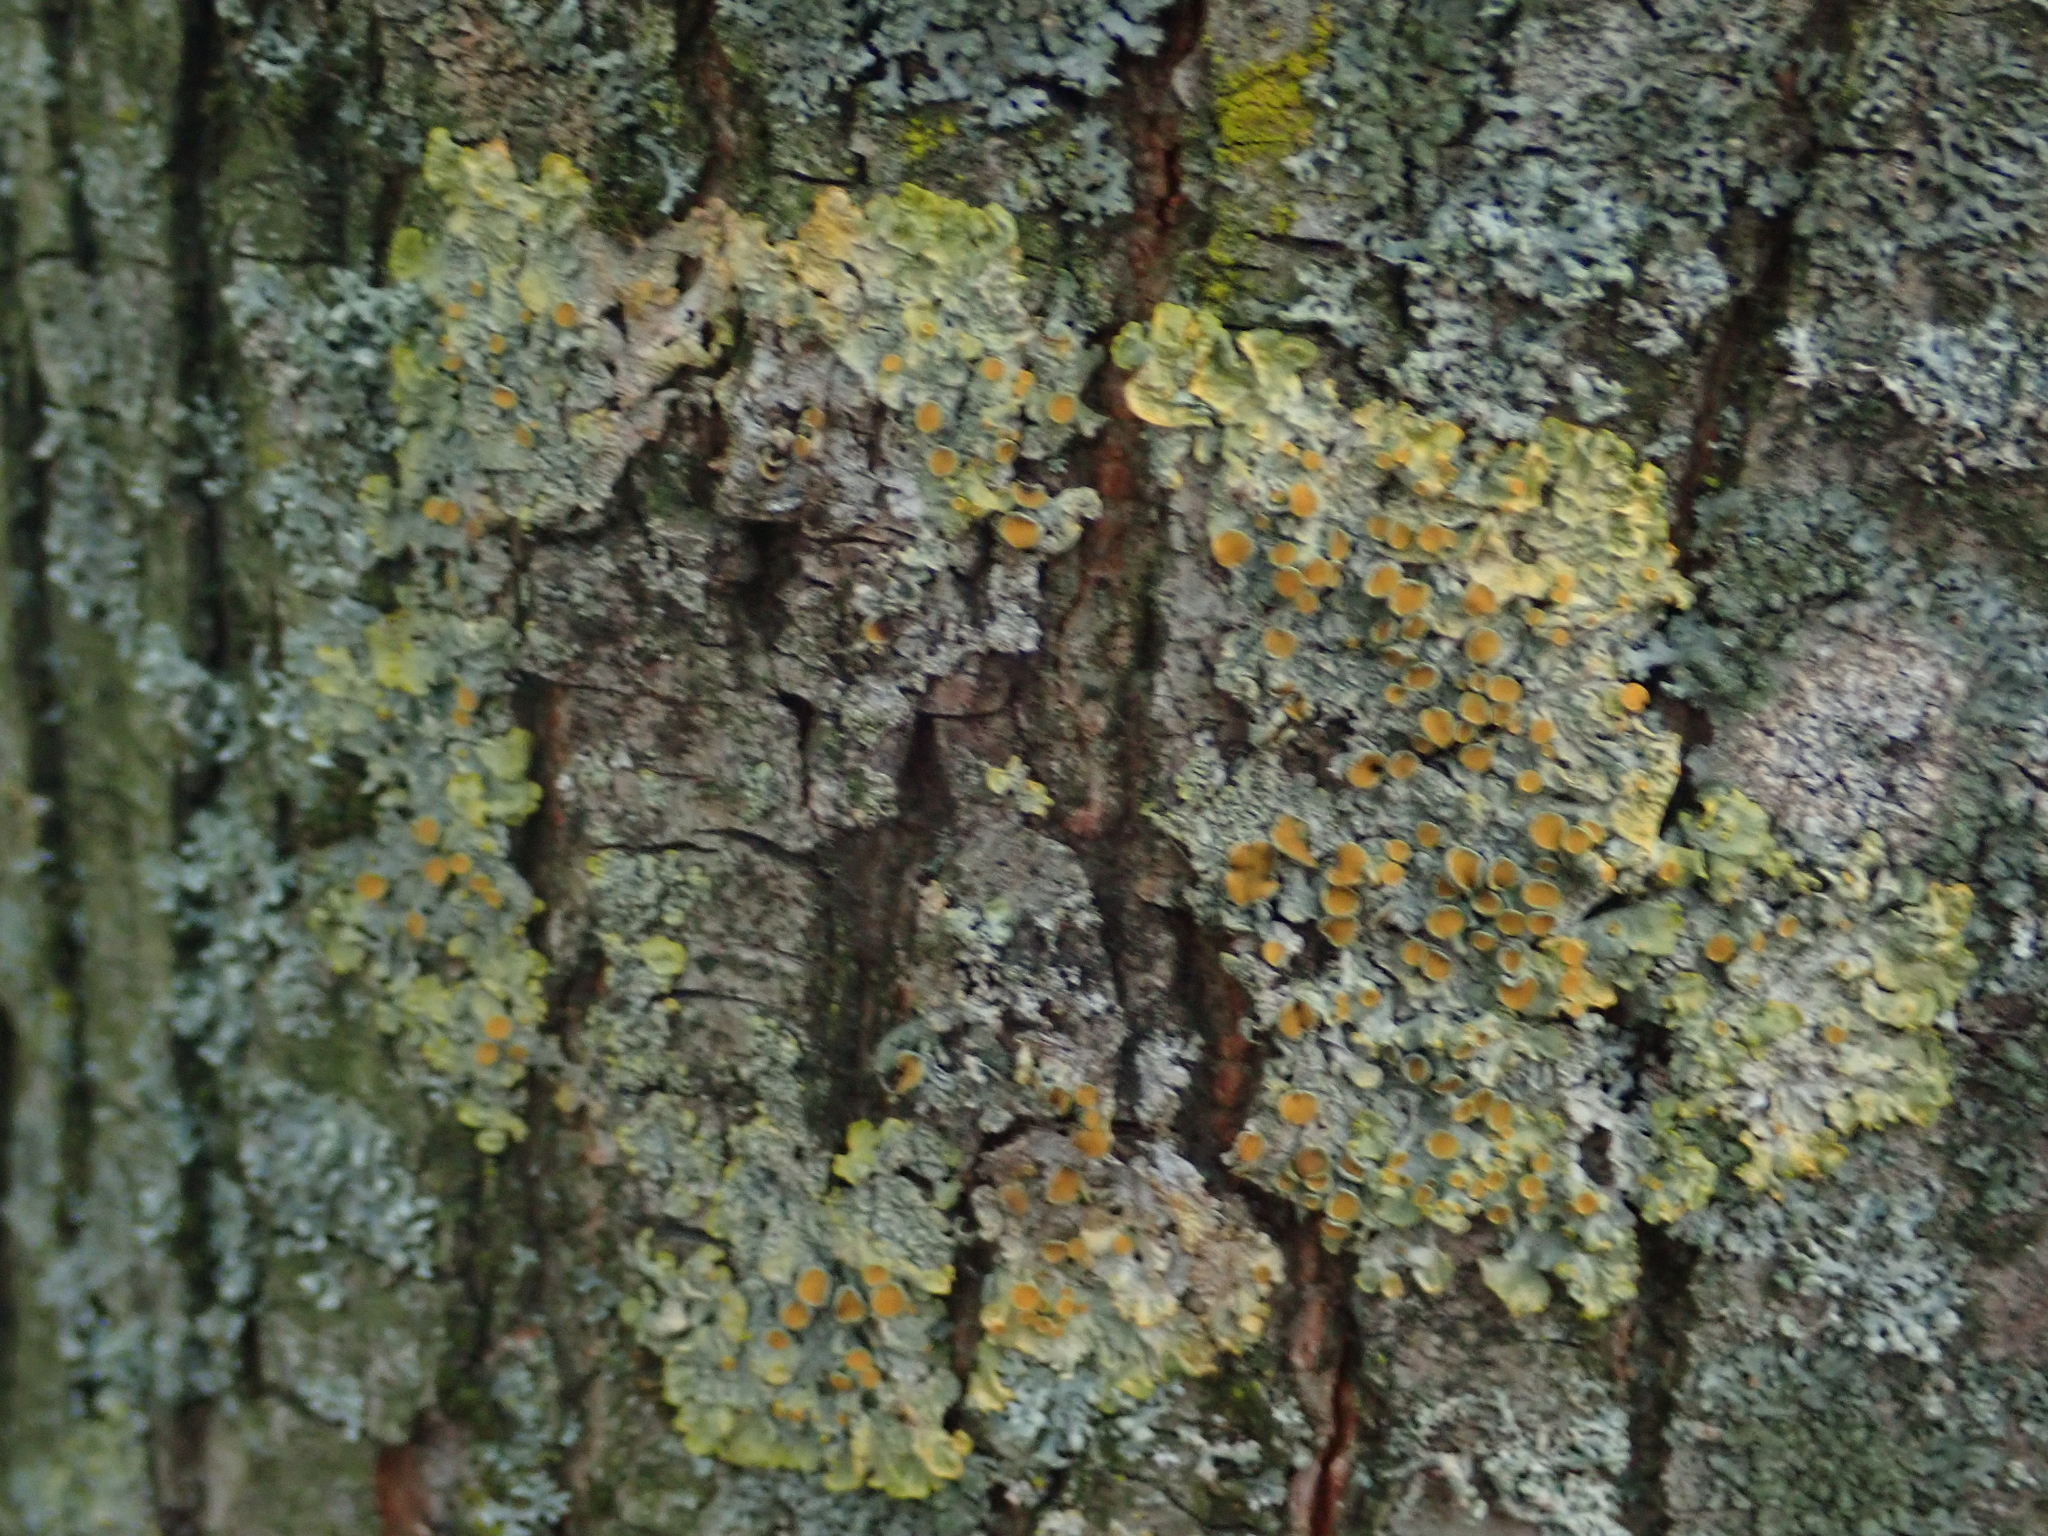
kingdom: Fungi
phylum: Ascomycota
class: Lecanoromycetes
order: Teloschistales
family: Teloschistaceae
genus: Xanthoria
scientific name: Xanthoria parietina
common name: Common orange lichen
